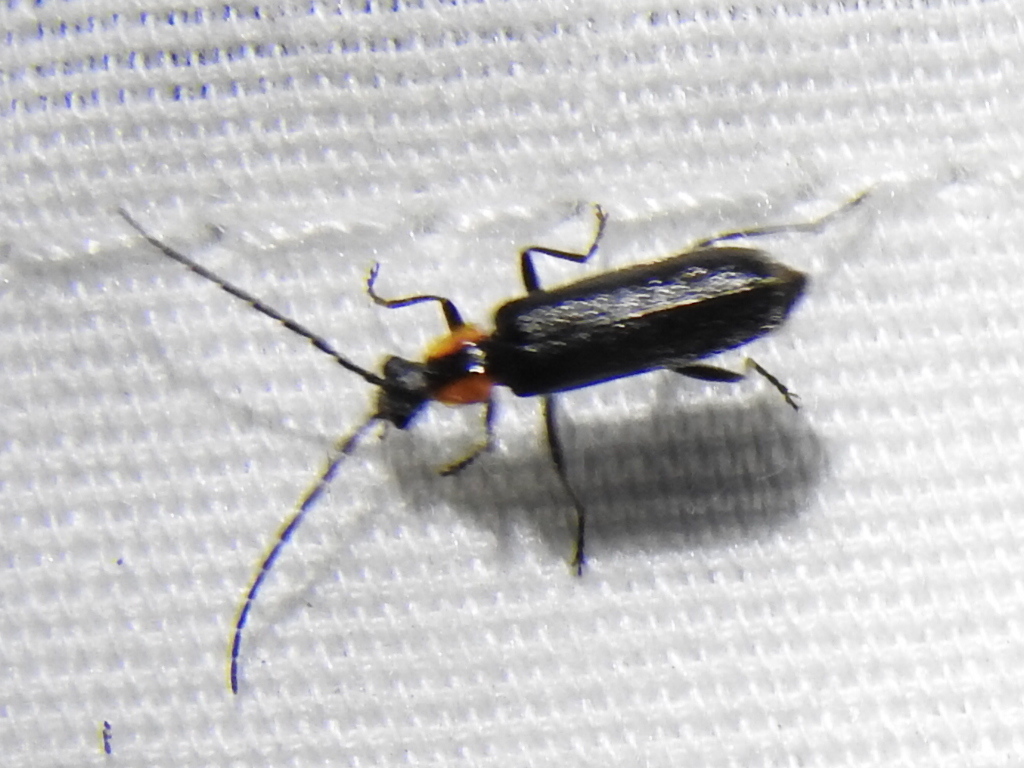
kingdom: Animalia
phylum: Arthropoda
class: Insecta
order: Coleoptera
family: Cantharidae
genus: Rhagonycha
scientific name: Rhagonycha lineola
